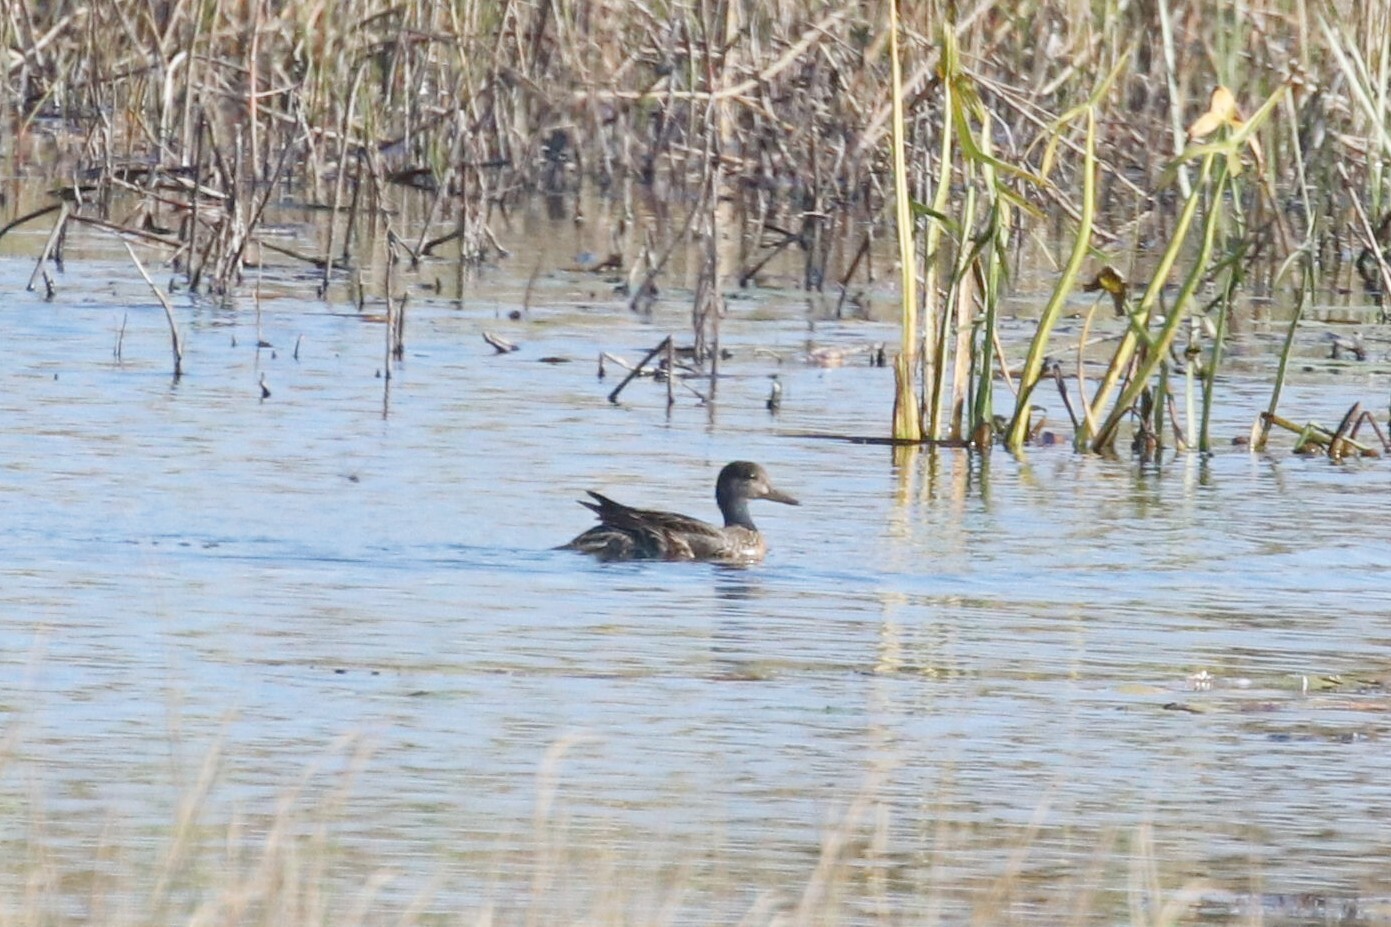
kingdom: Animalia
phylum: Chordata
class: Aves
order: Anseriformes
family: Anatidae
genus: Mareca
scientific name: Mareca strepera
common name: Gadwall
